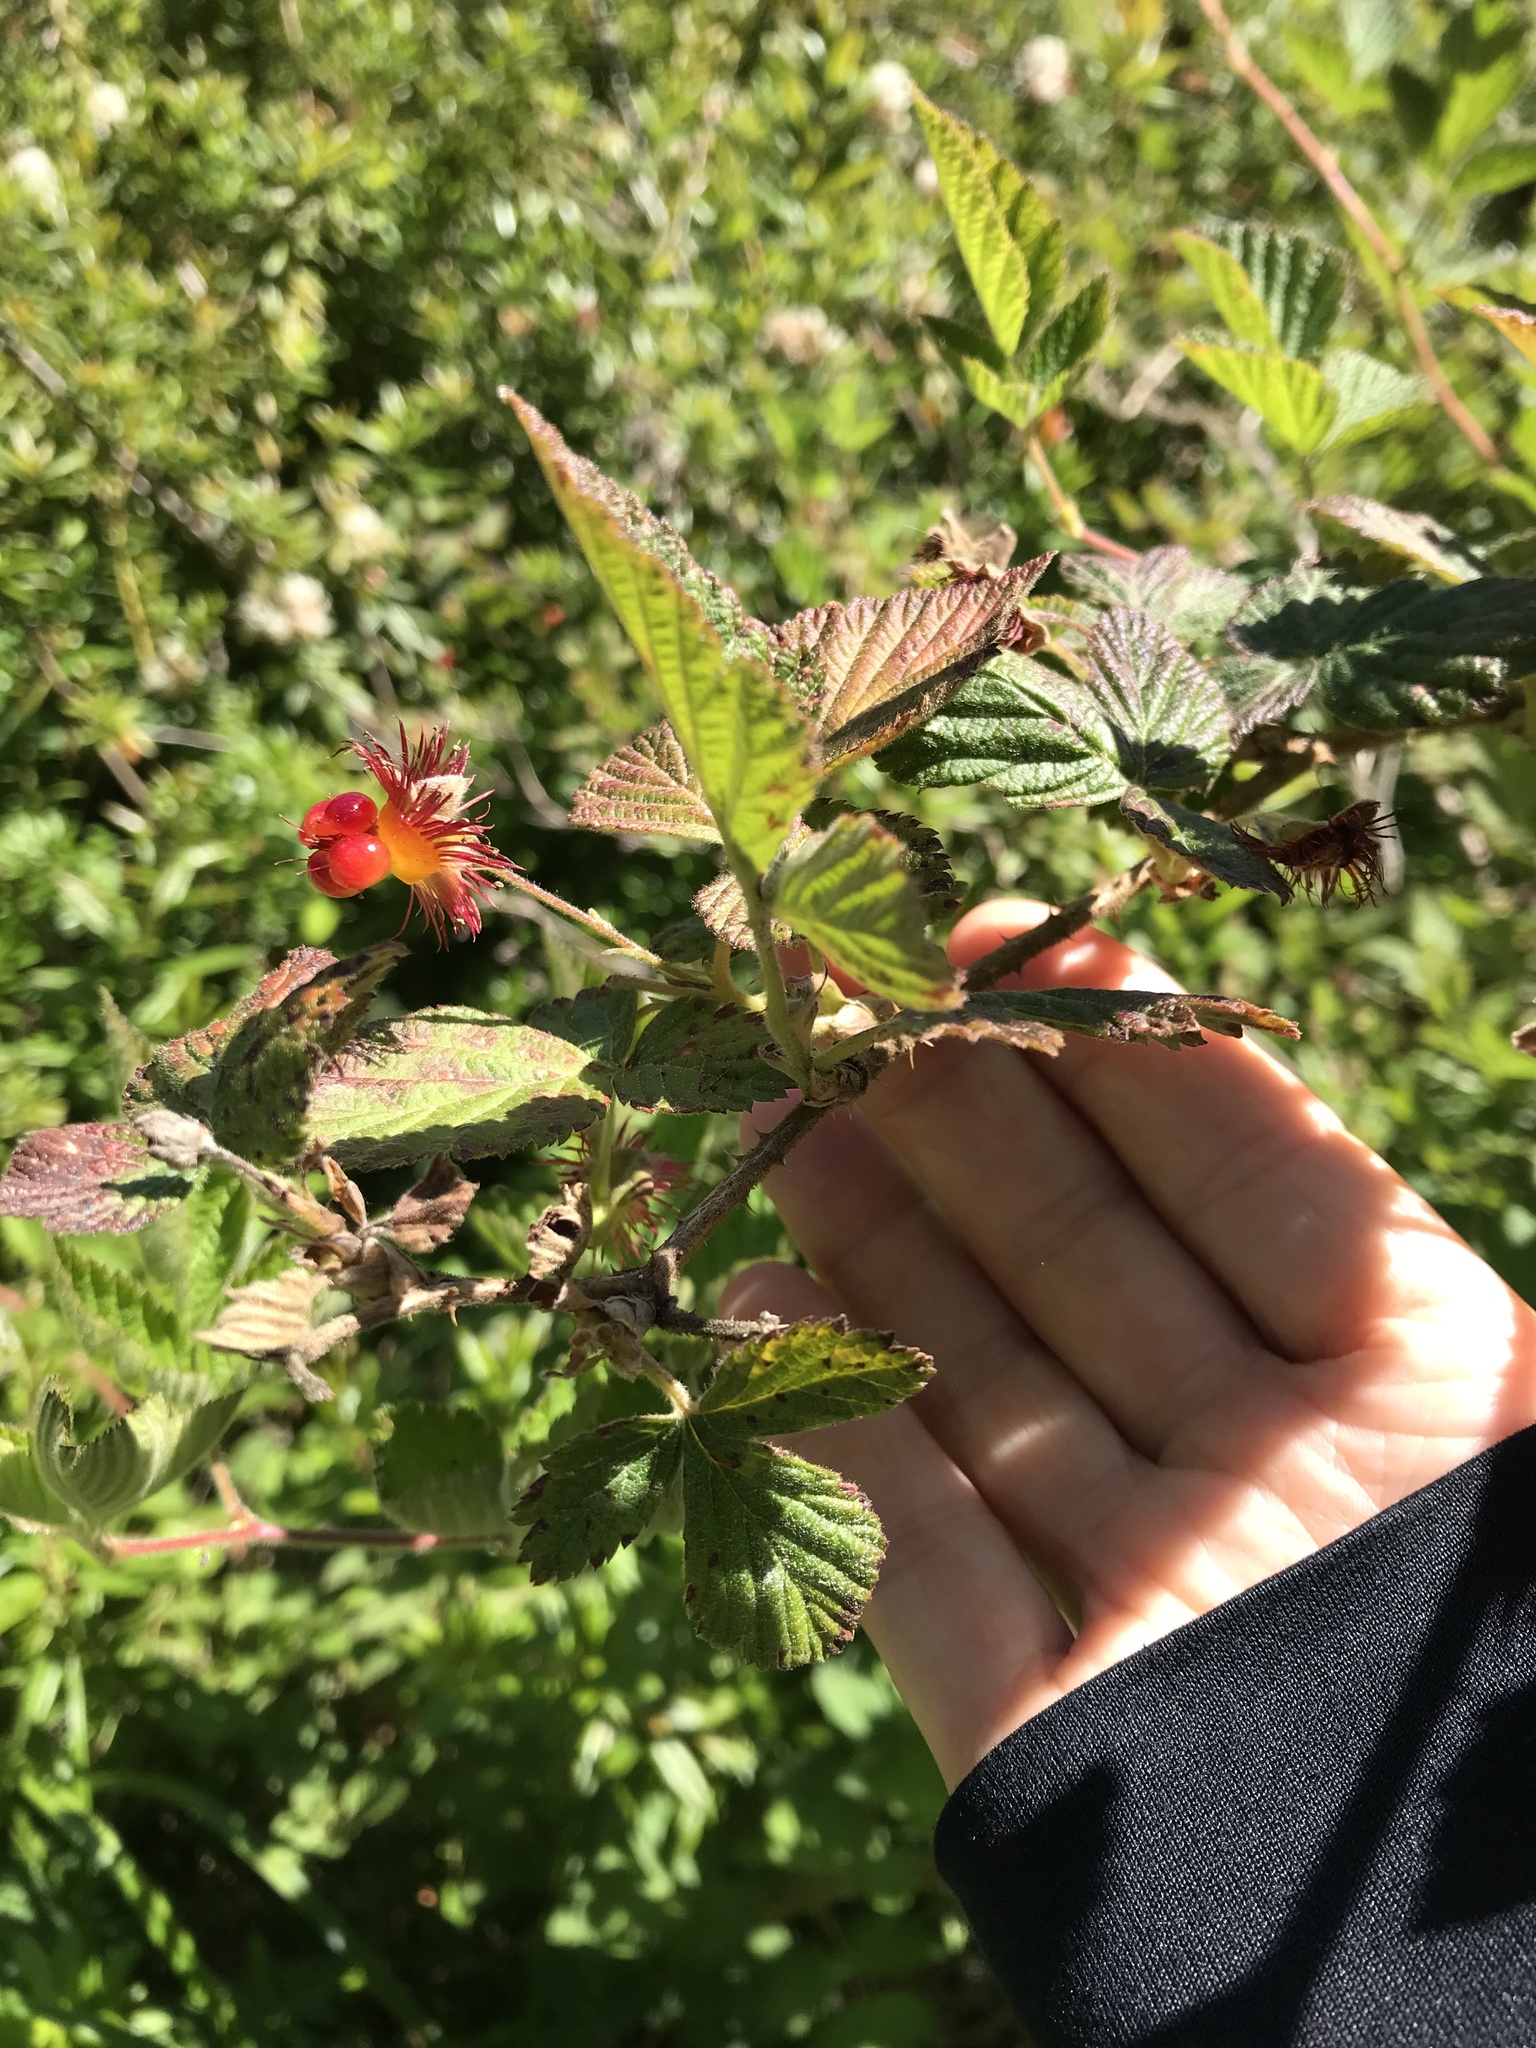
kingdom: Plantae
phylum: Tracheophyta
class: Magnoliopsida
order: Rosales
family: Rosaceae
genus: Rubus
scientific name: Rubus spectabilis
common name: Salmonberry
